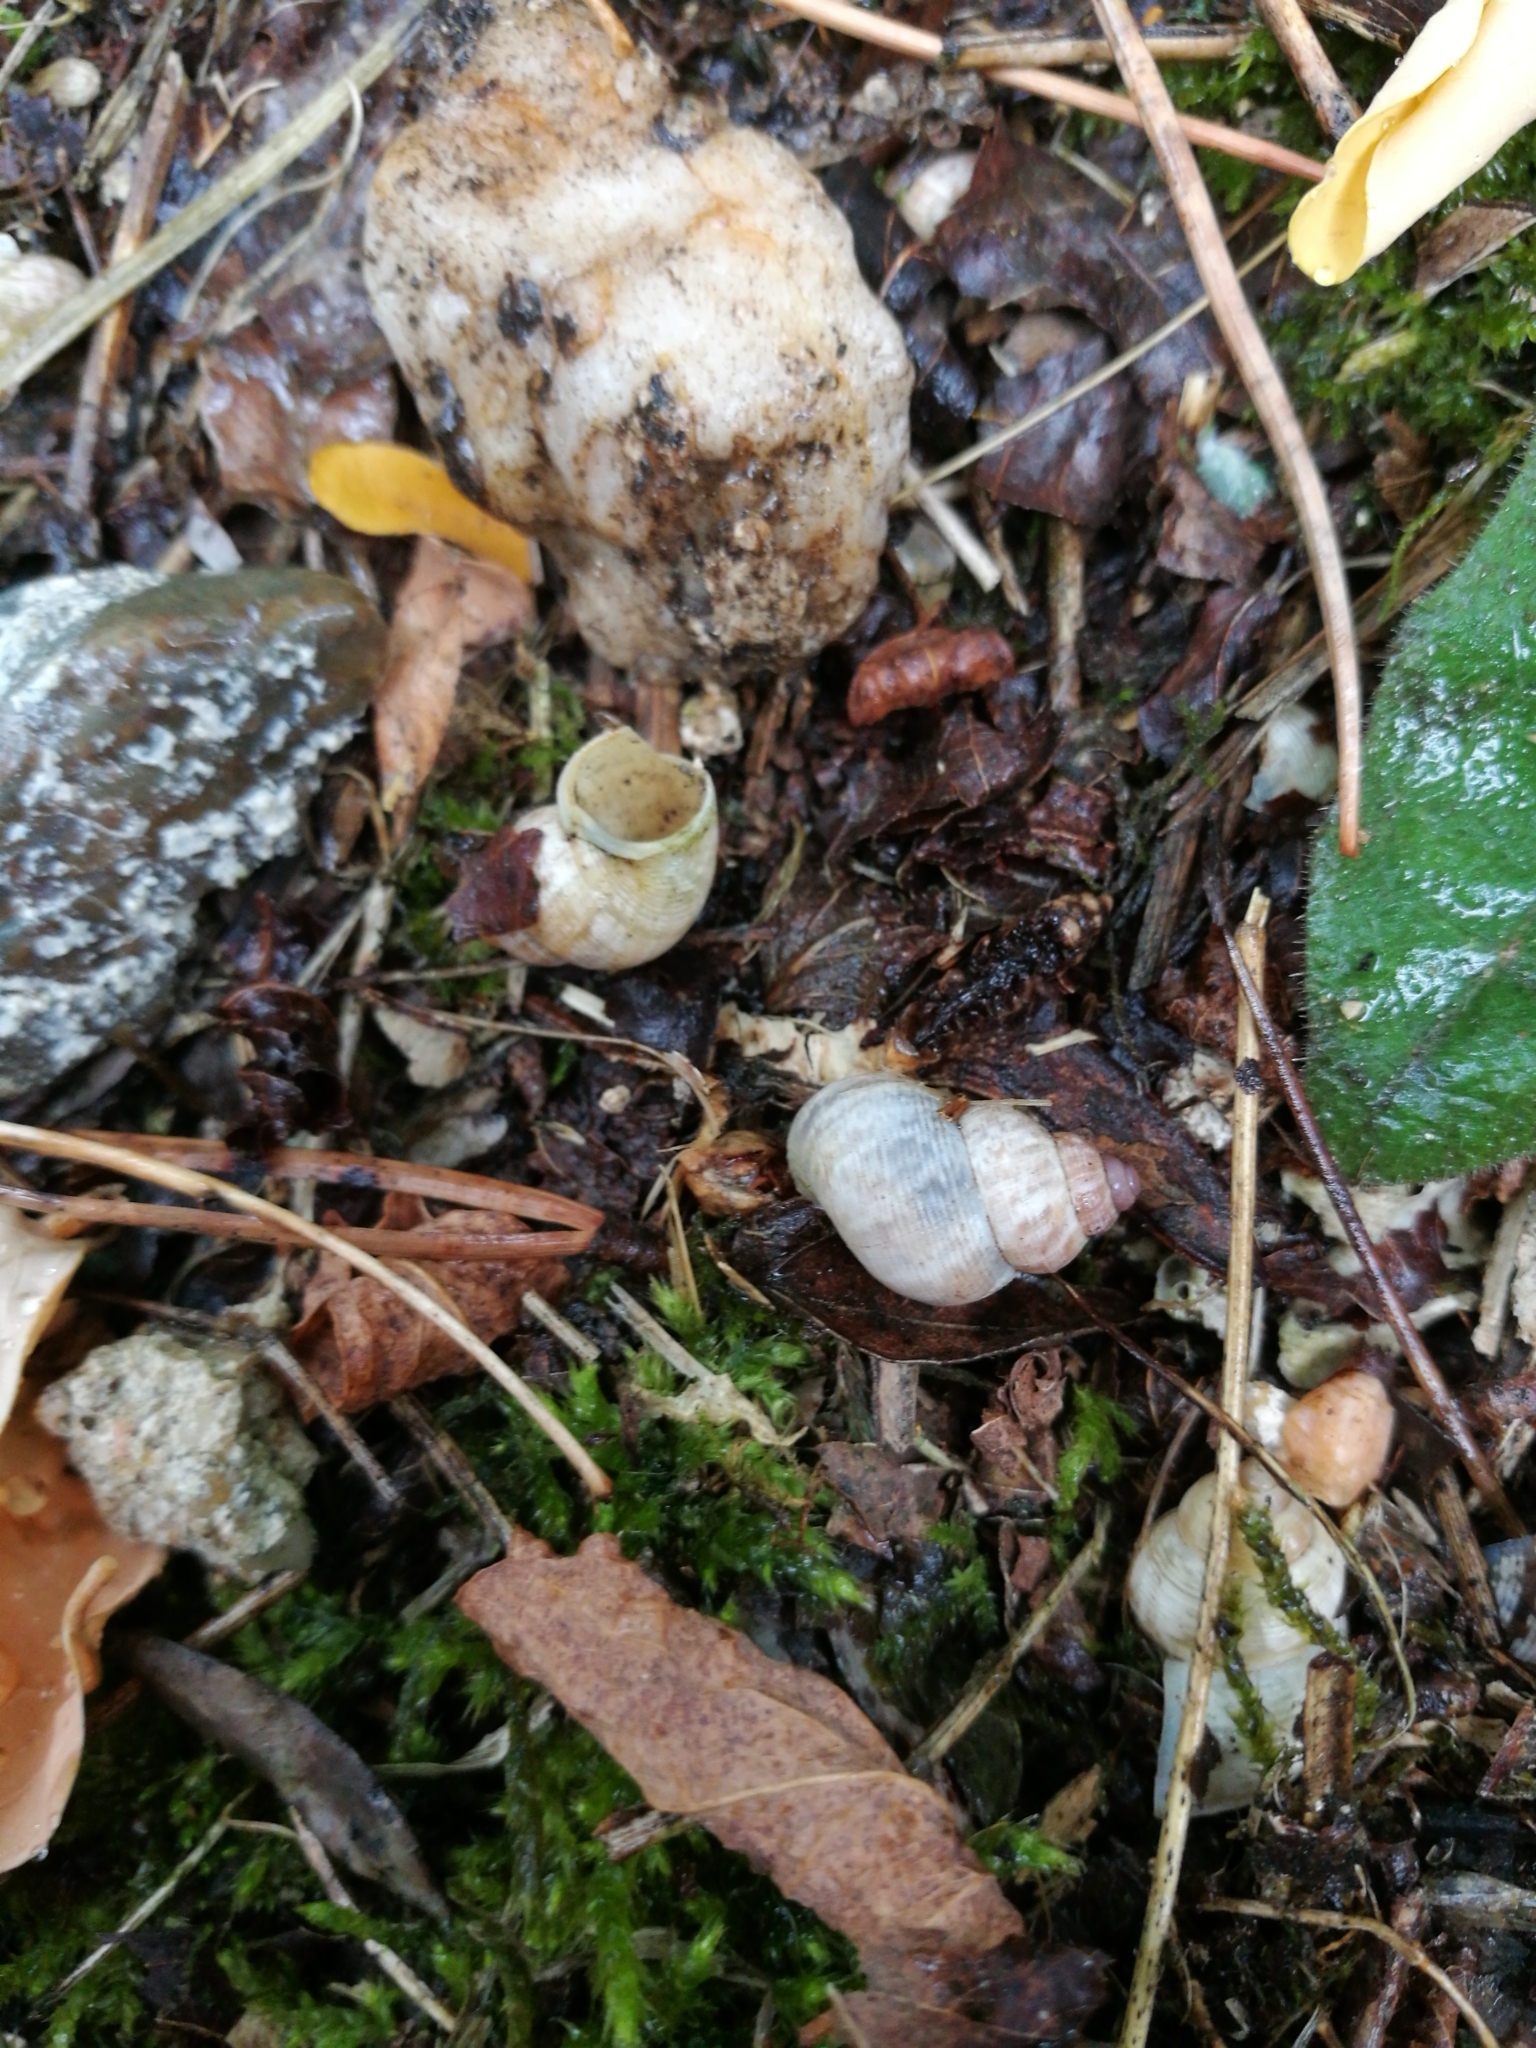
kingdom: Animalia
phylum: Mollusca
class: Gastropoda
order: Littorinimorpha
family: Pomatiidae
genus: Pomatias
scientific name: Pomatias elegans
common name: Red-mouthed snail
